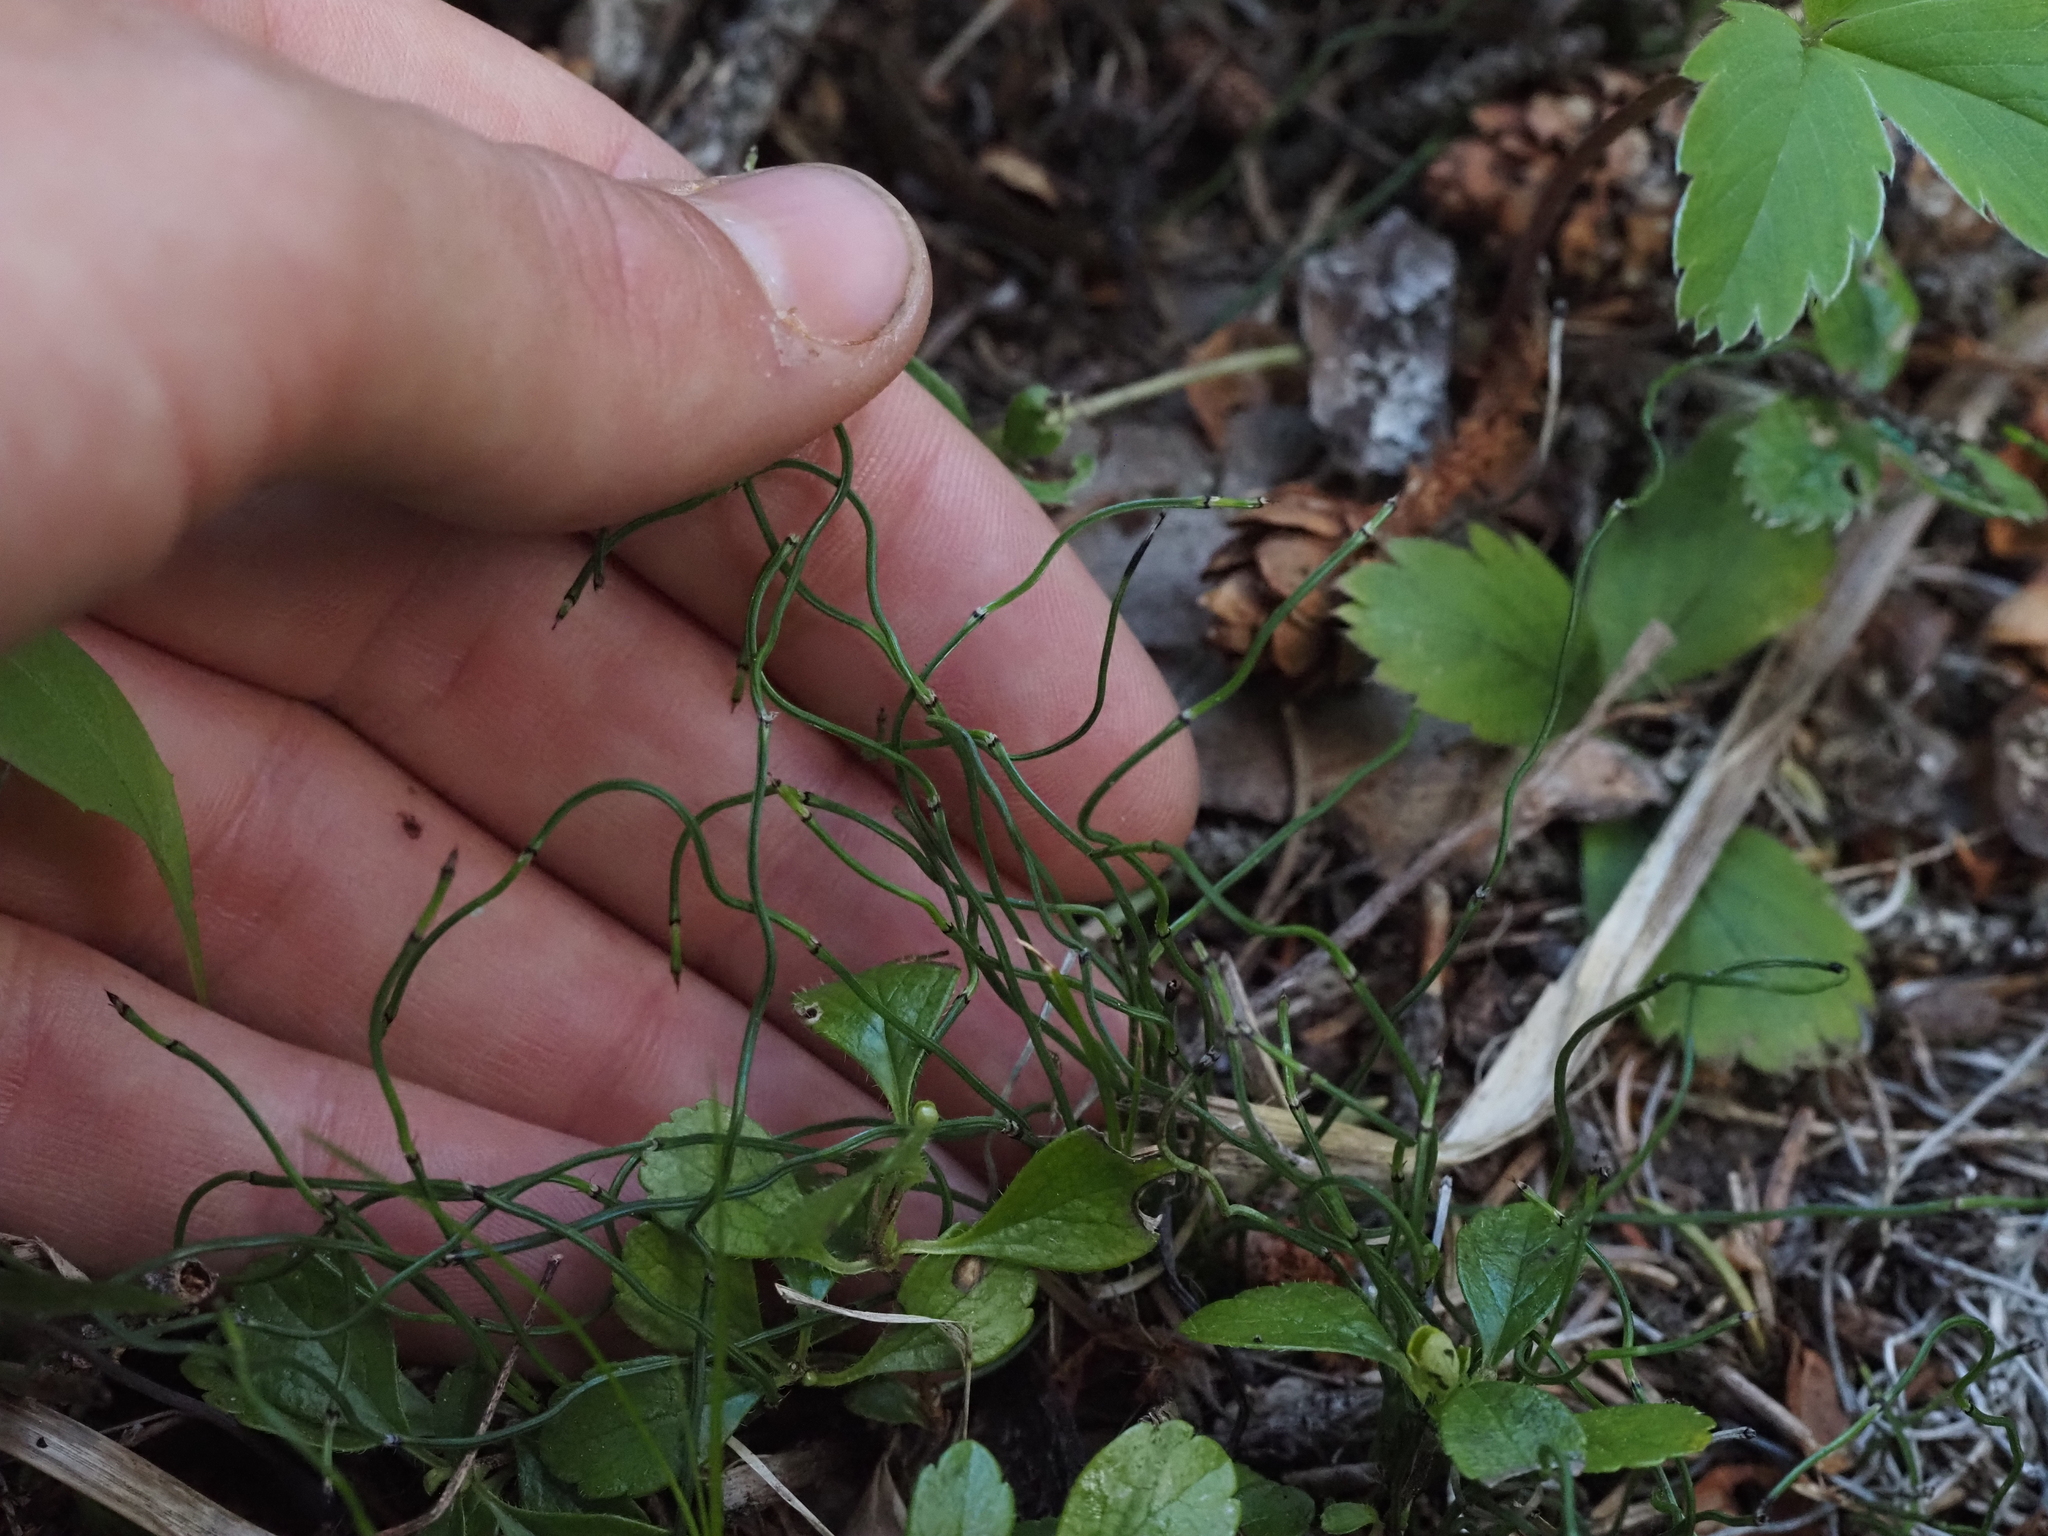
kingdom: Plantae
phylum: Tracheophyta
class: Polypodiopsida
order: Equisetales
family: Equisetaceae
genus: Equisetum
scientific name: Equisetum scirpoides
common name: Delicate horsetail
